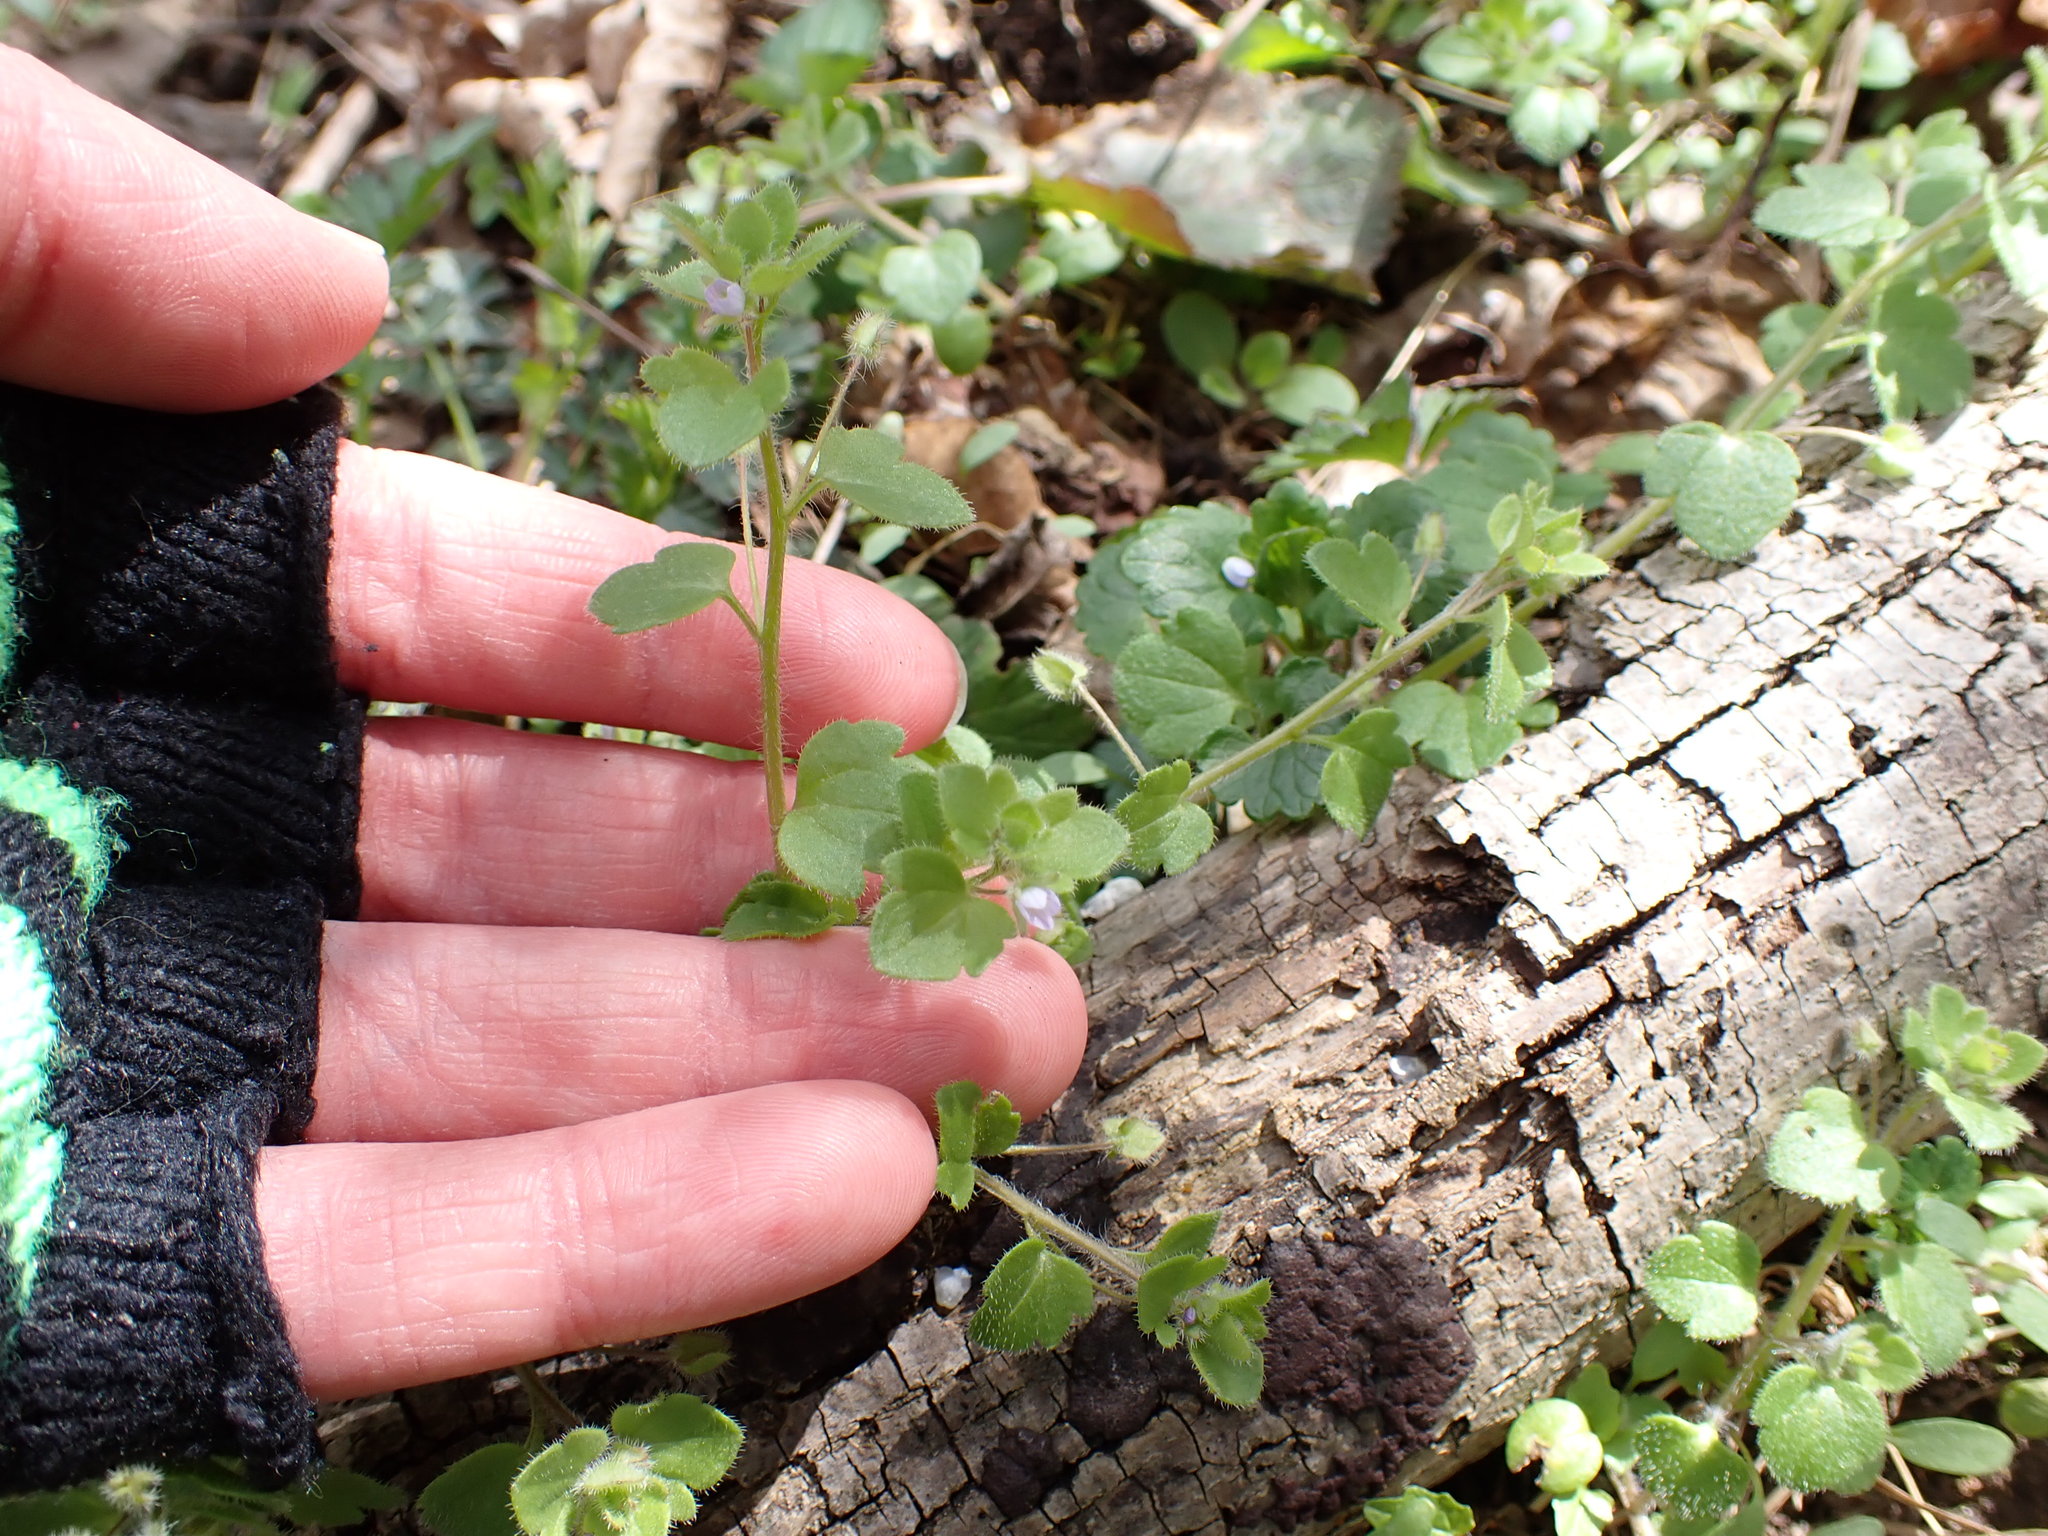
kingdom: Plantae
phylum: Tracheophyta
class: Magnoliopsida
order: Lamiales
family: Plantaginaceae
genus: Veronica
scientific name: Veronica sublobata
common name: False ivy-leaved speedwell
